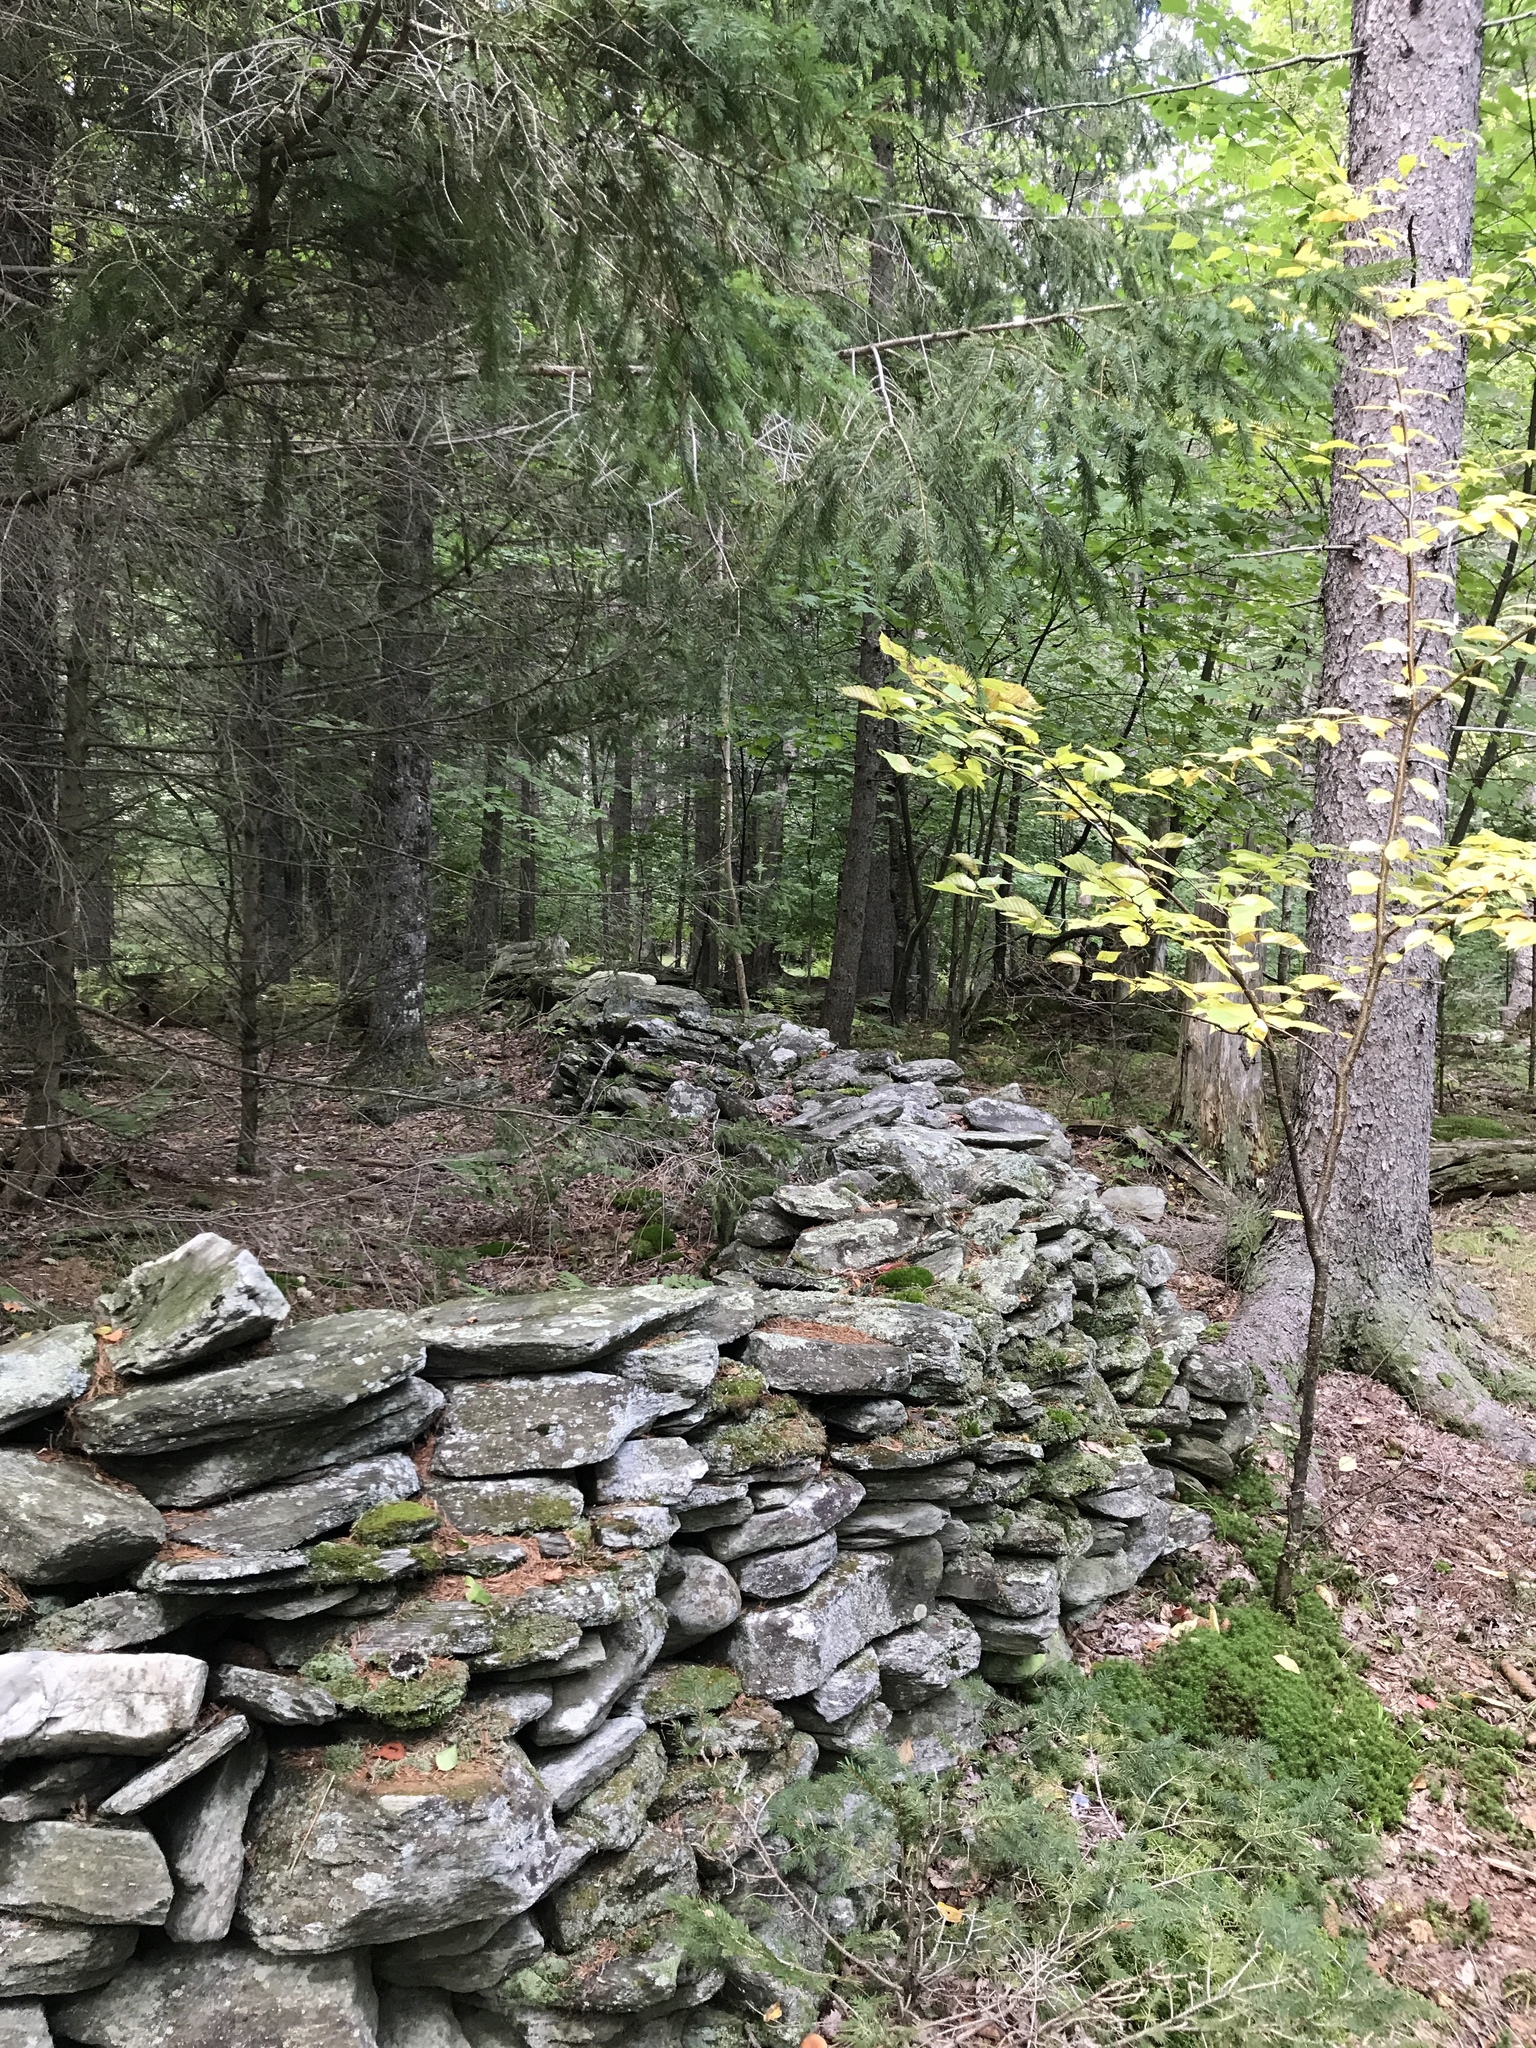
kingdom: Plantae
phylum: Tracheophyta
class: Magnoliopsida
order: Fagales
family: Fagaceae
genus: Fagus
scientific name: Fagus grandifolia
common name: American beech
